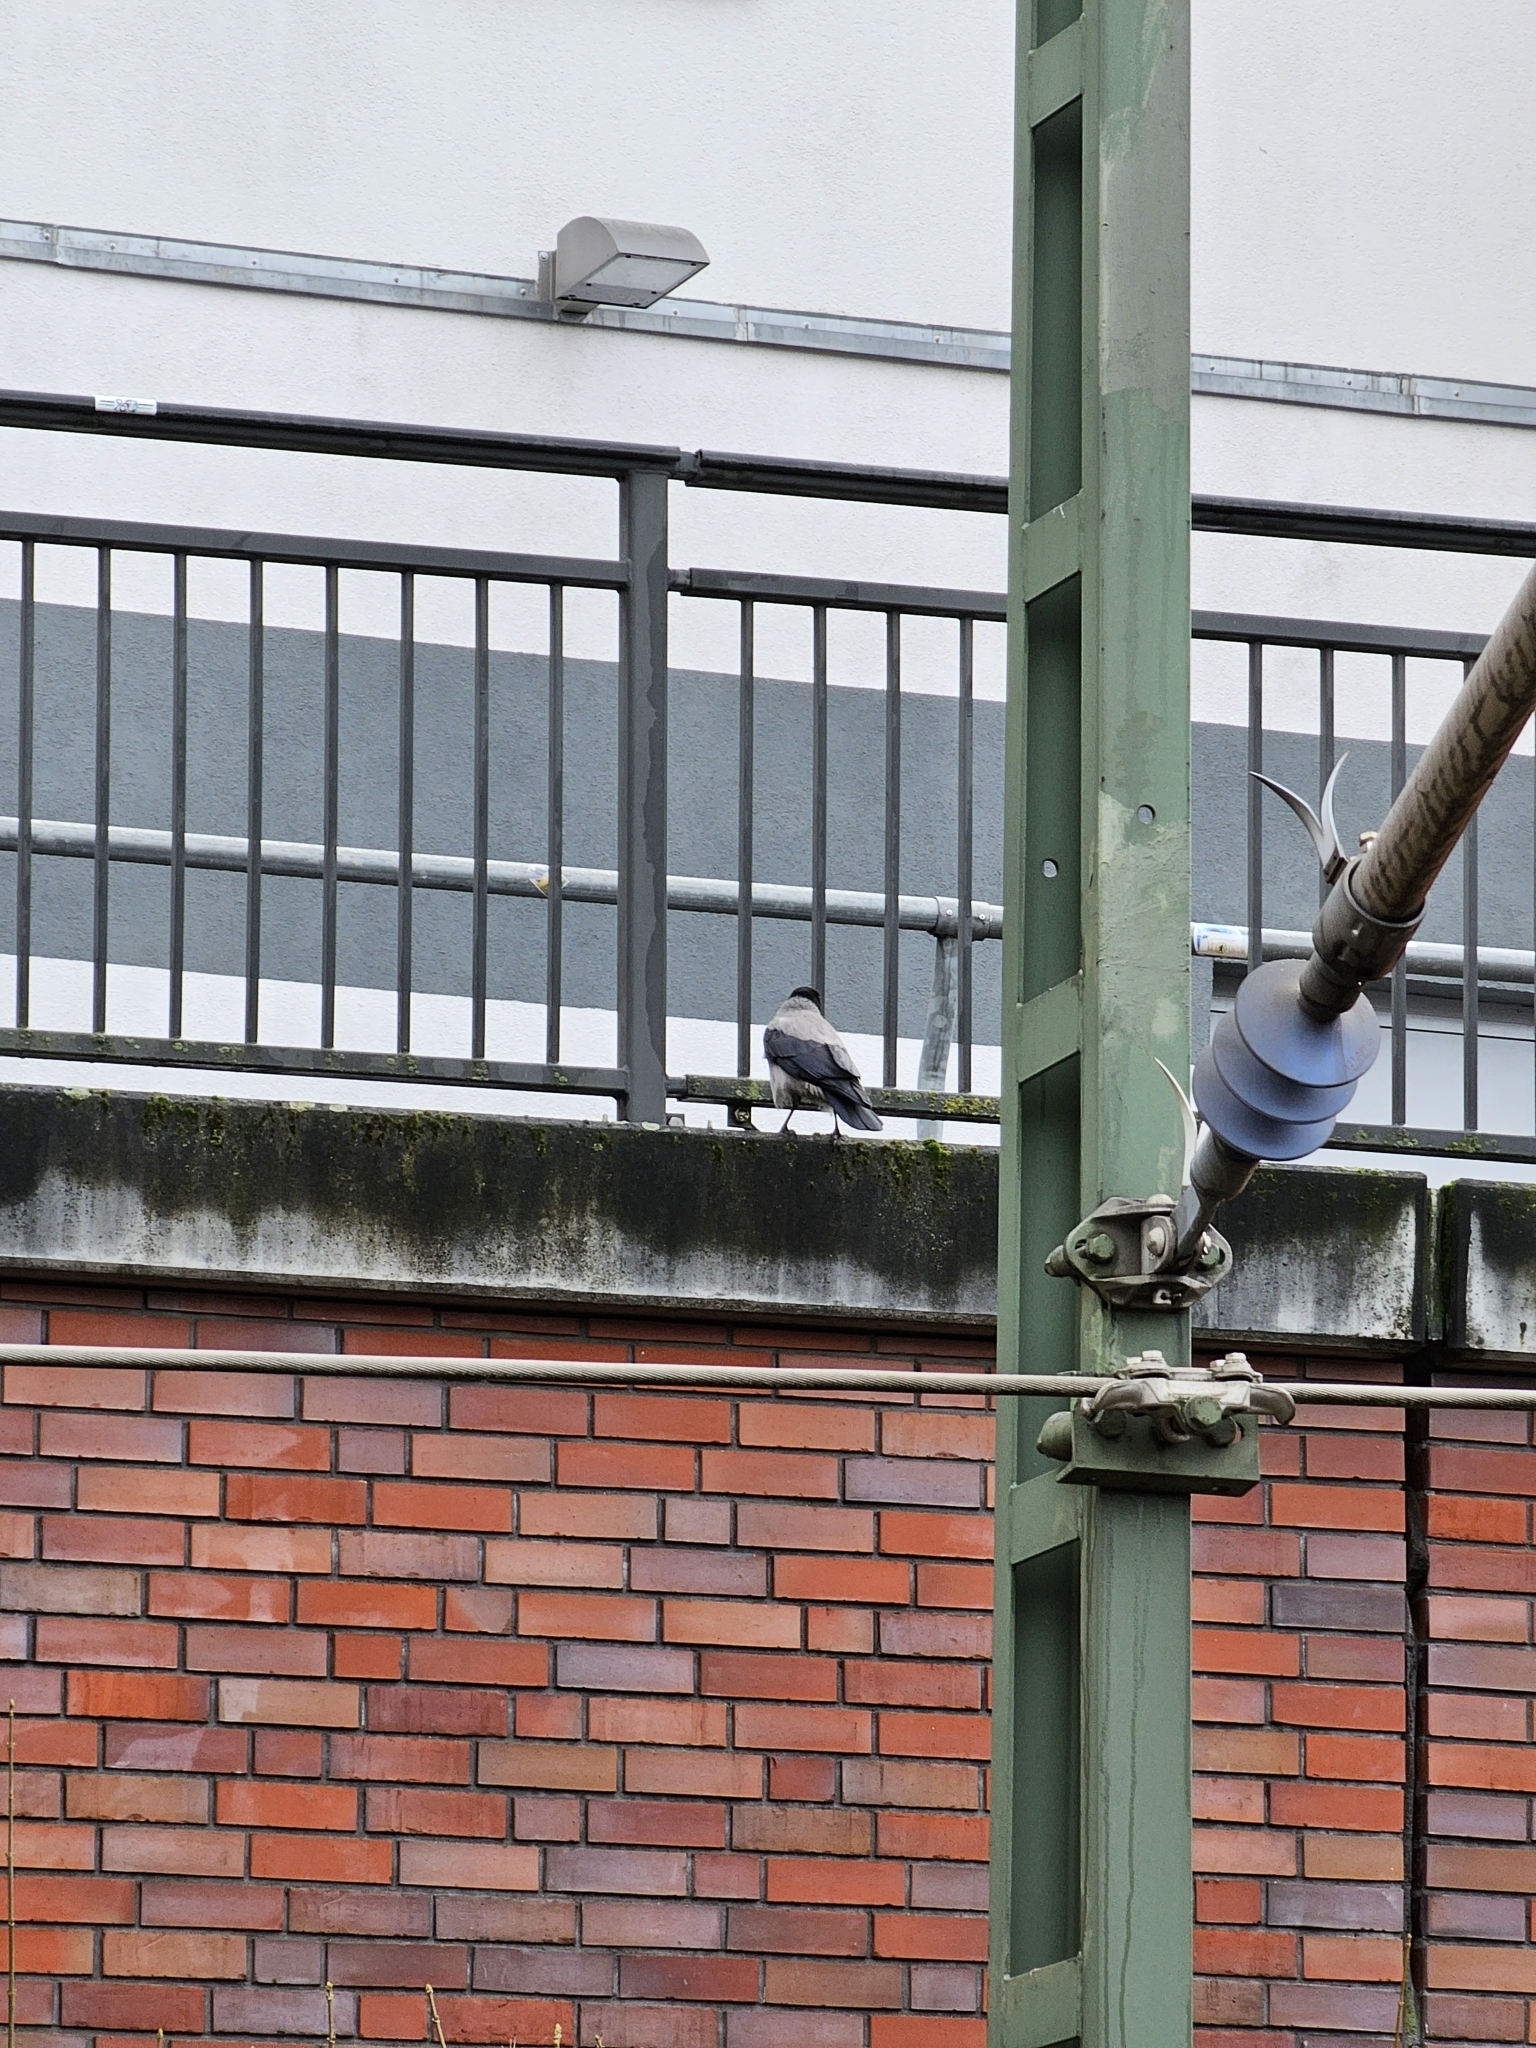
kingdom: Animalia
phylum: Chordata
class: Aves
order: Passeriformes
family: Corvidae
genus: Corvus
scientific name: Corvus cornix
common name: Hooded crow
